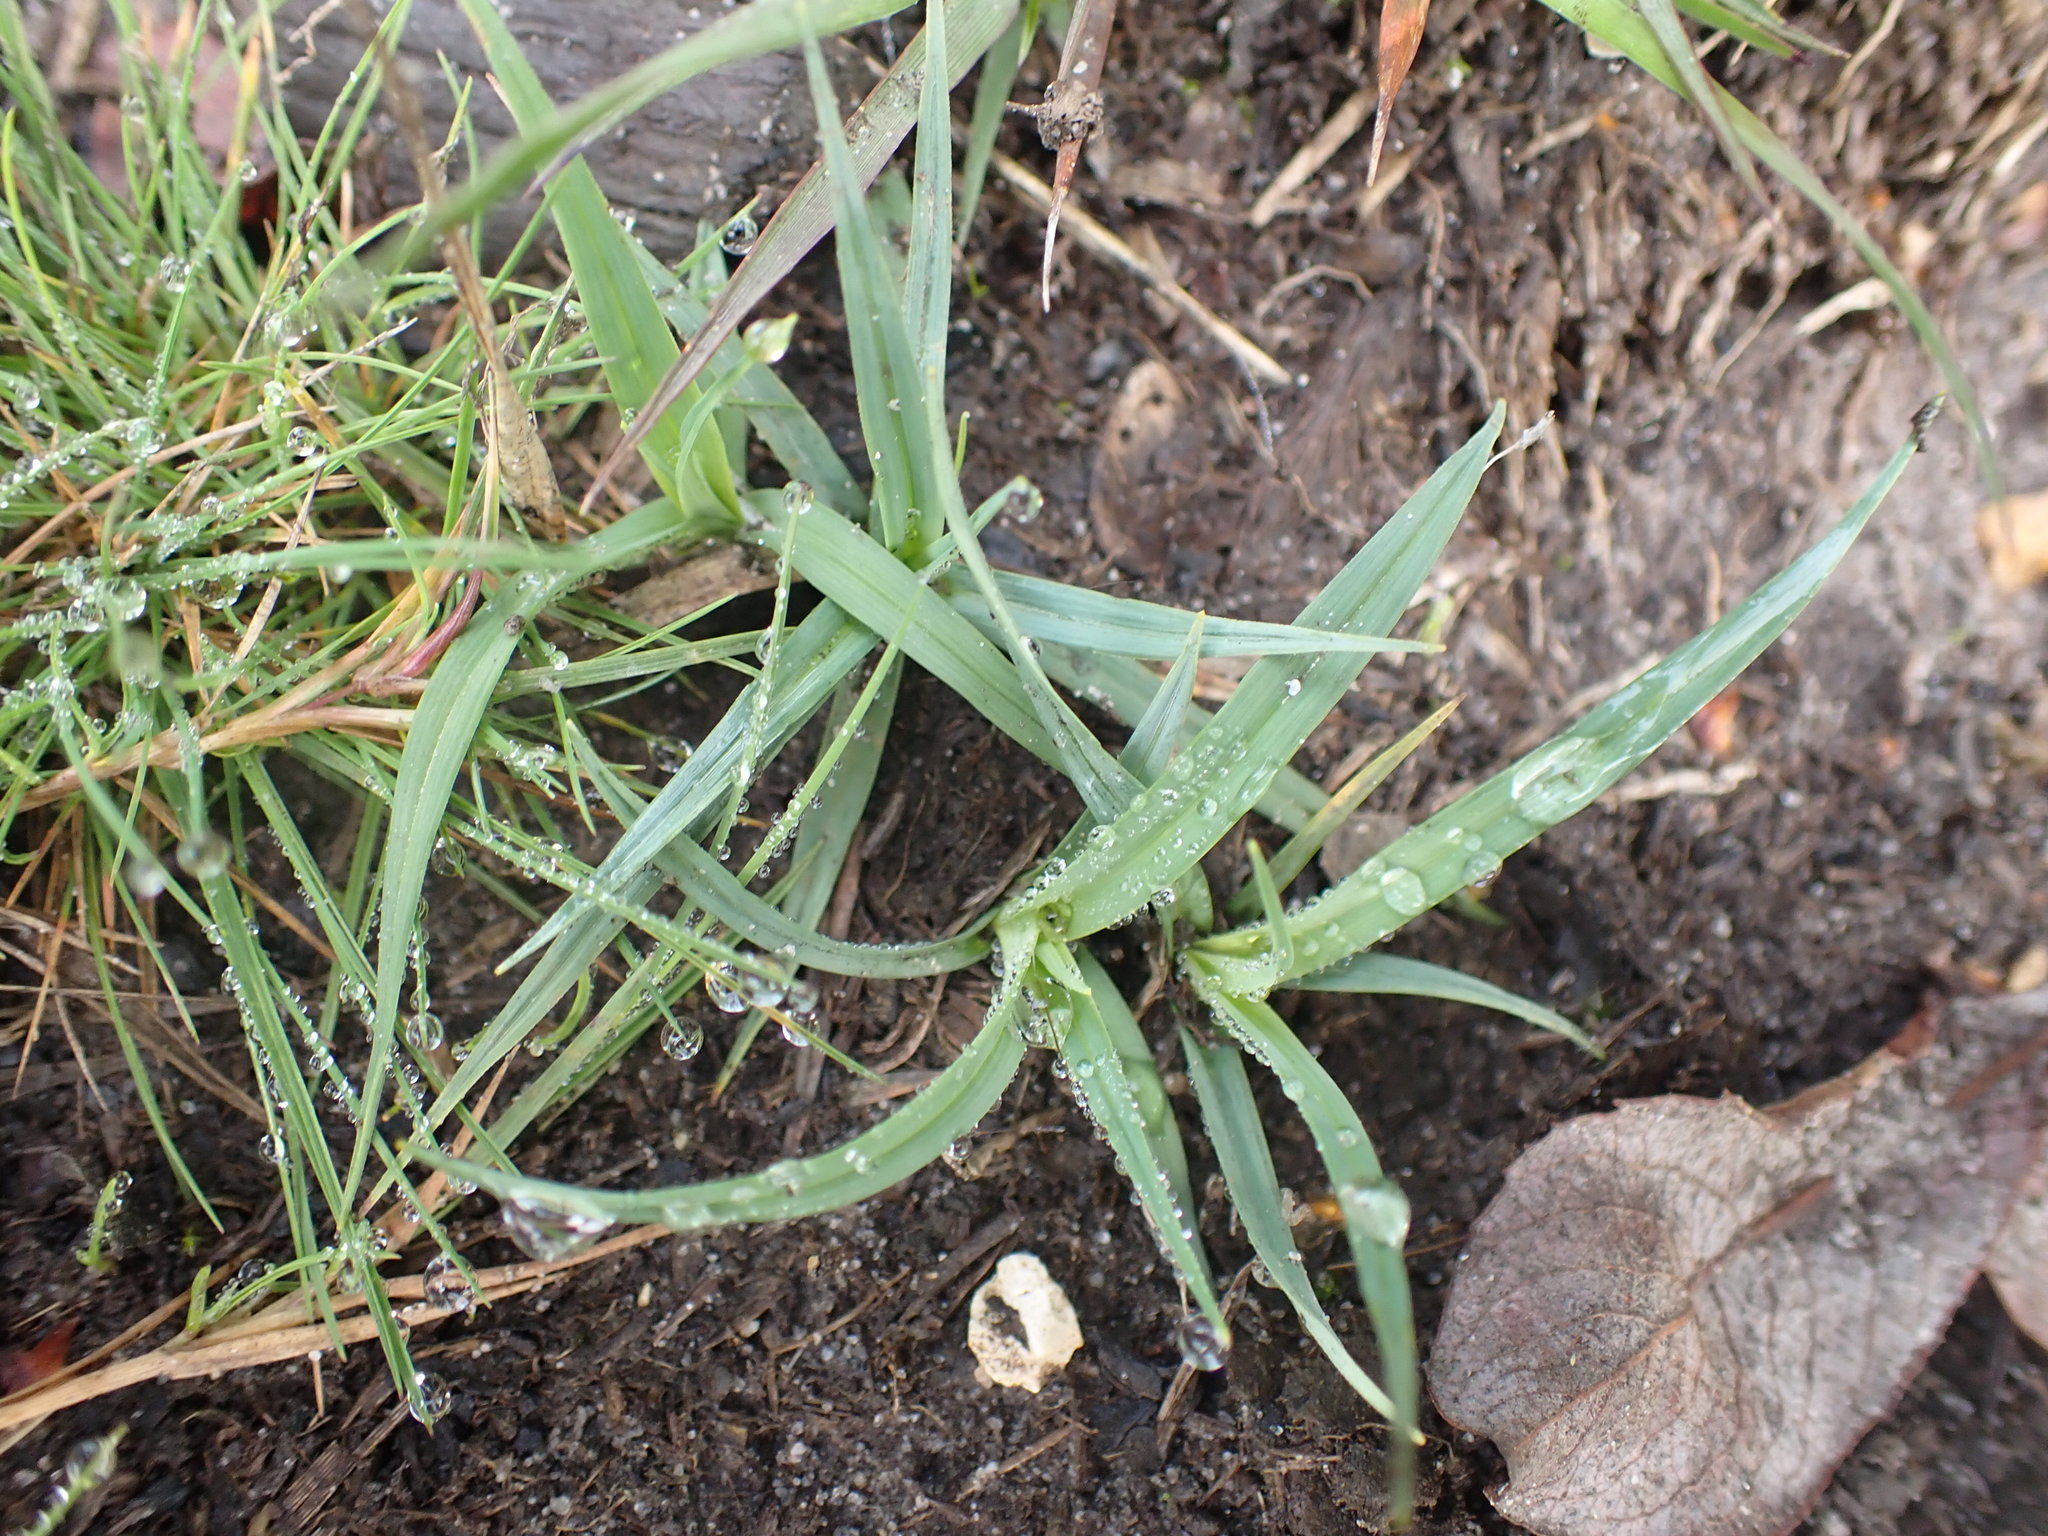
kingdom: Plantae
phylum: Tracheophyta
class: Liliopsida
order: Poales
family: Cyperaceae
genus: Carex
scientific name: Carex panicea
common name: Carnation sedge
